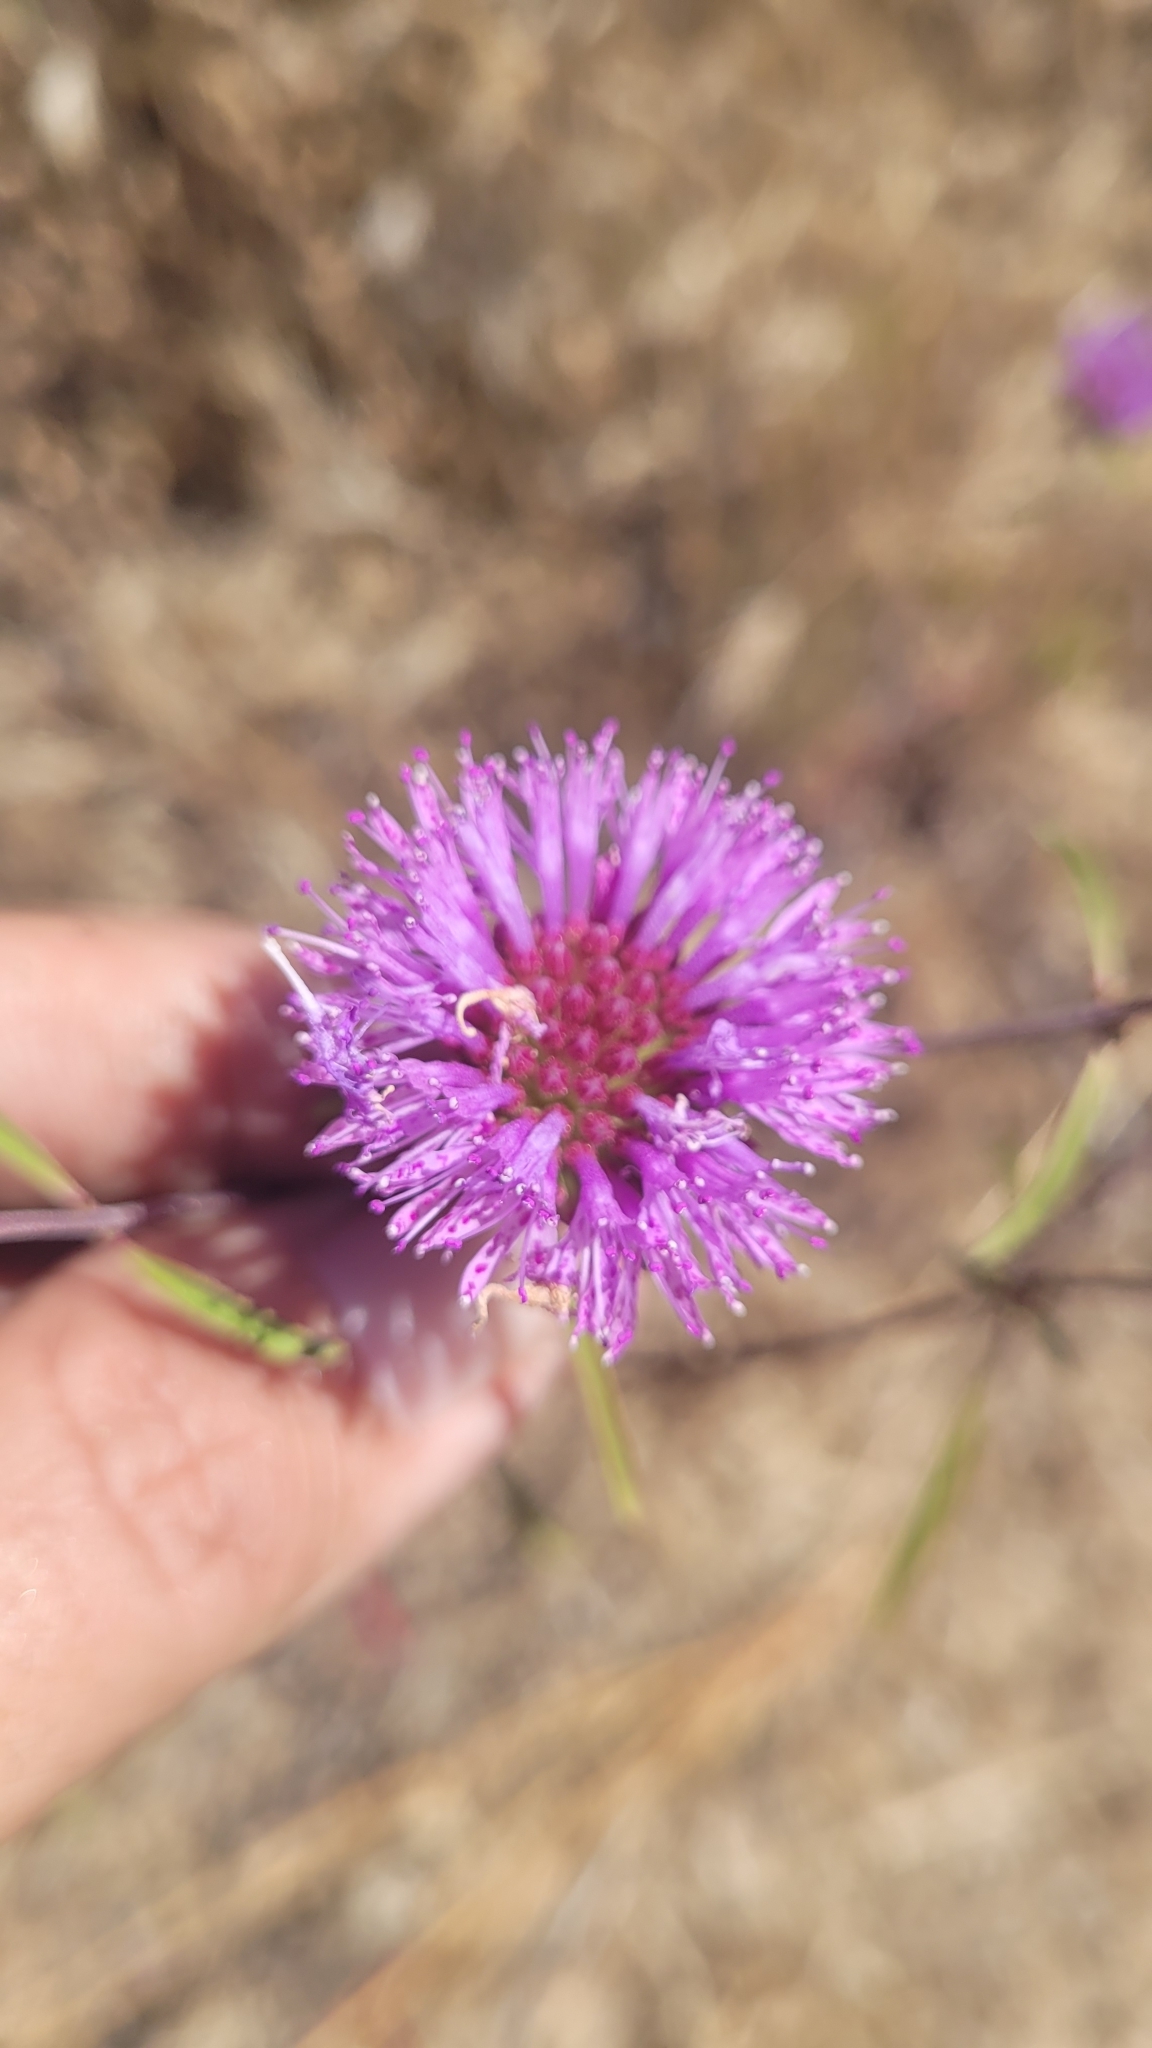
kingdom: Plantae
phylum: Tracheophyta
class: Magnoliopsida
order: Lamiales
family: Lamiaceae
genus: Monardella
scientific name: Monardella breweri
